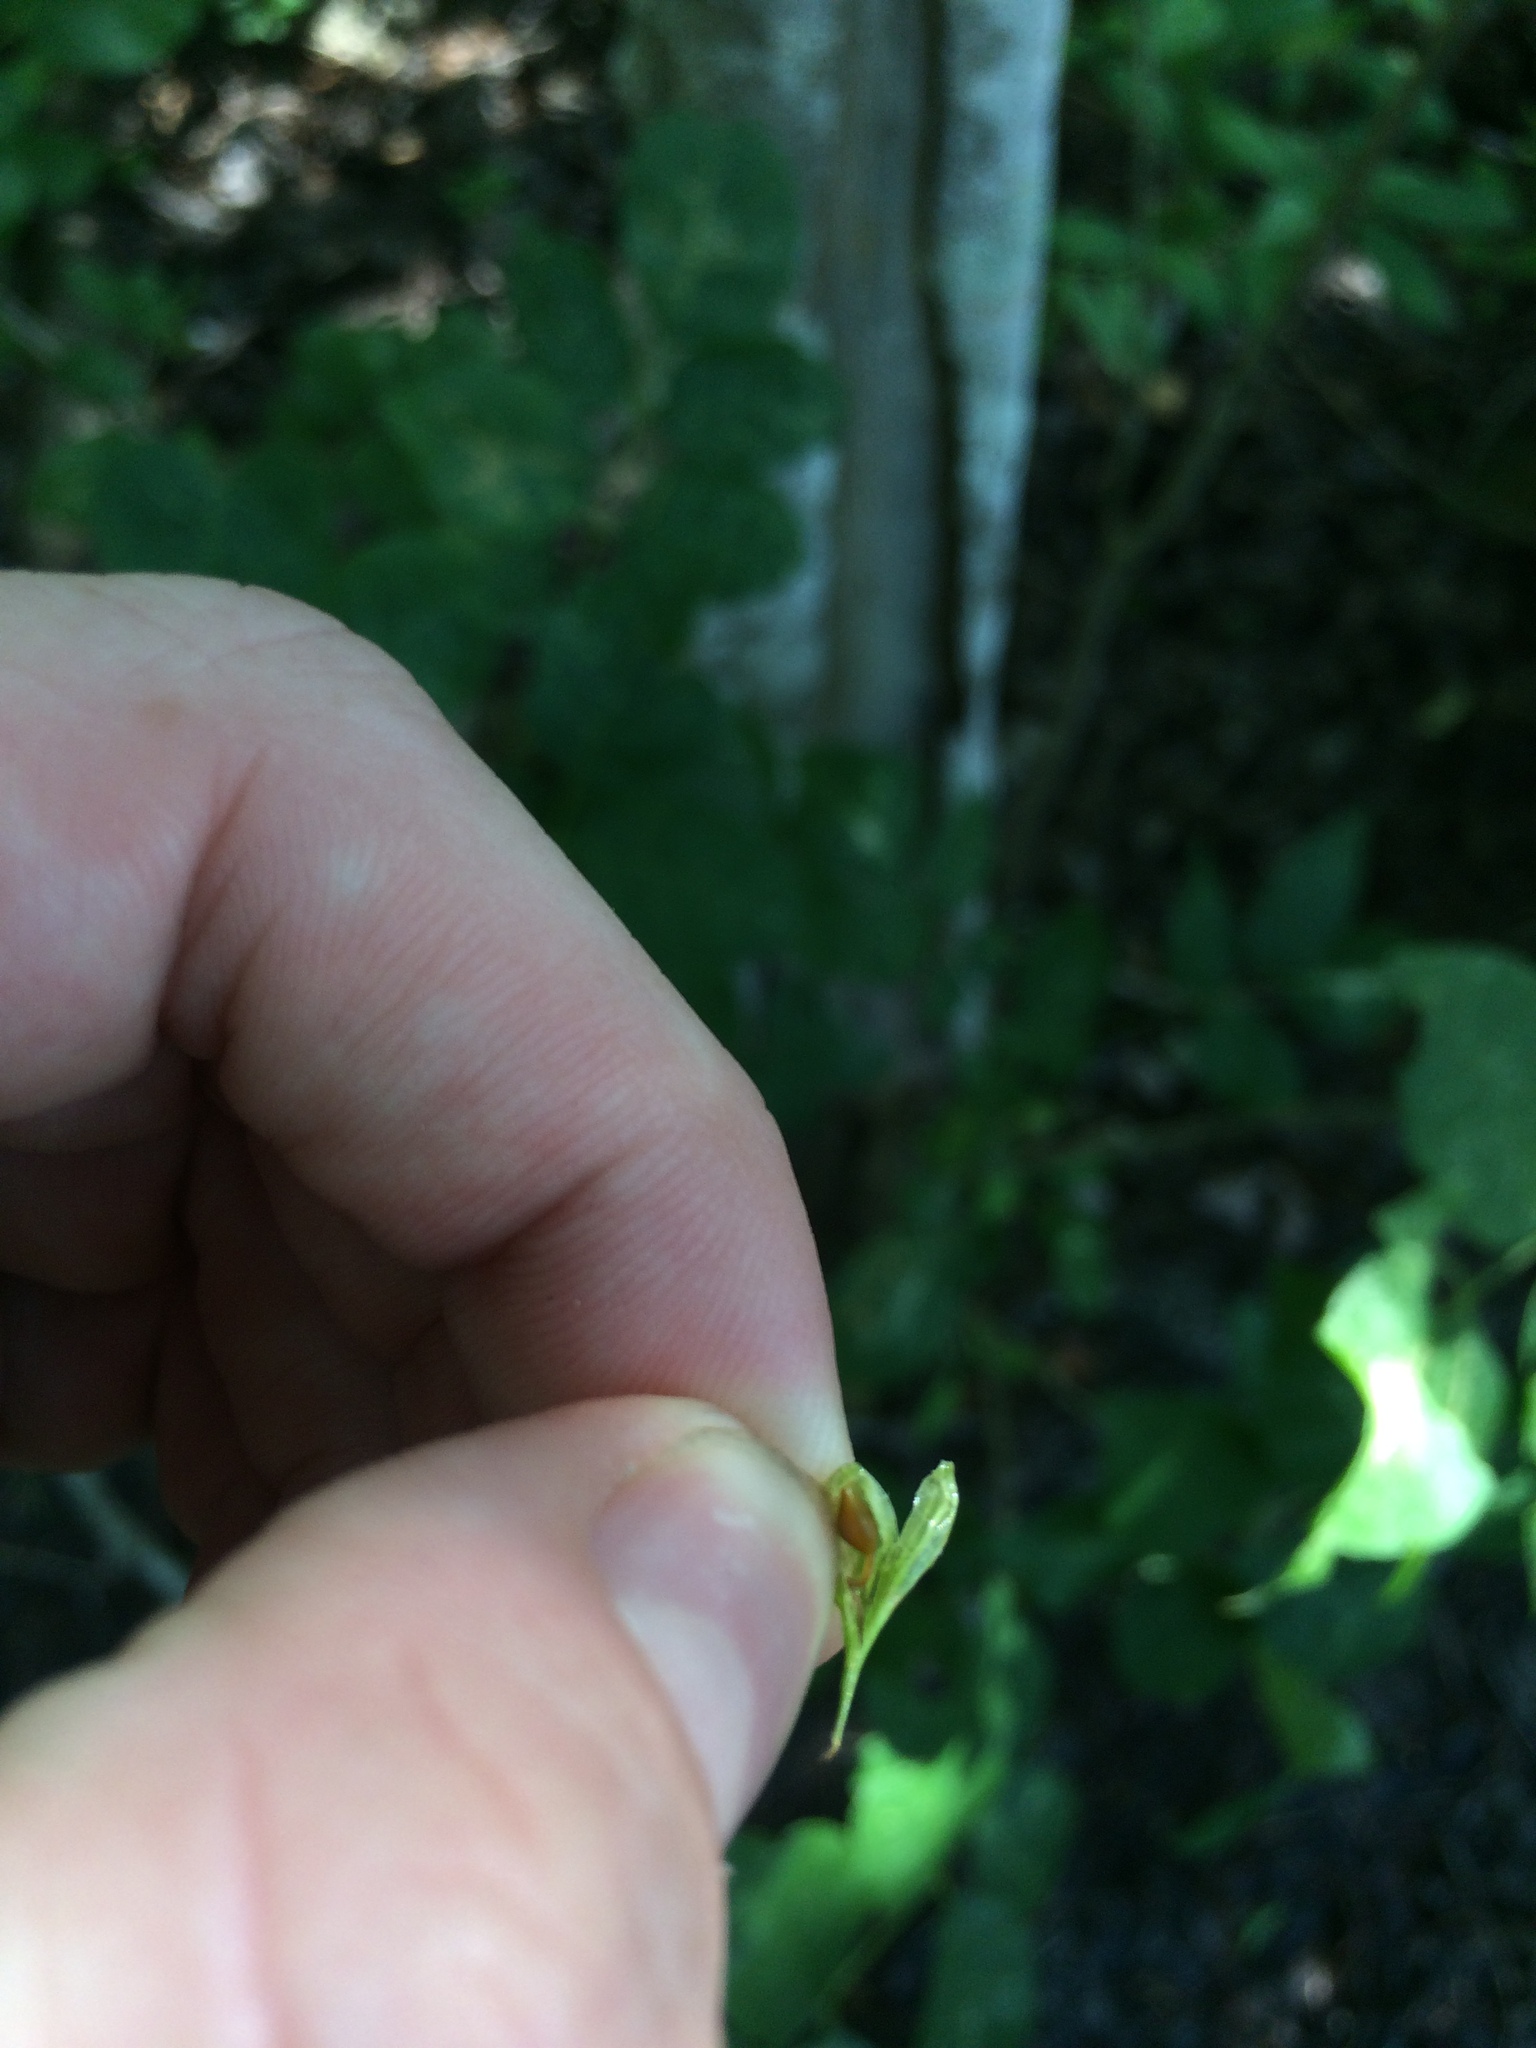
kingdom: Plantae
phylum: Tracheophyta
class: Liliopsida
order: Poales
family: Cyperaceae
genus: Carex
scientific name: Carex louisianica
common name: Louisiana sedge
